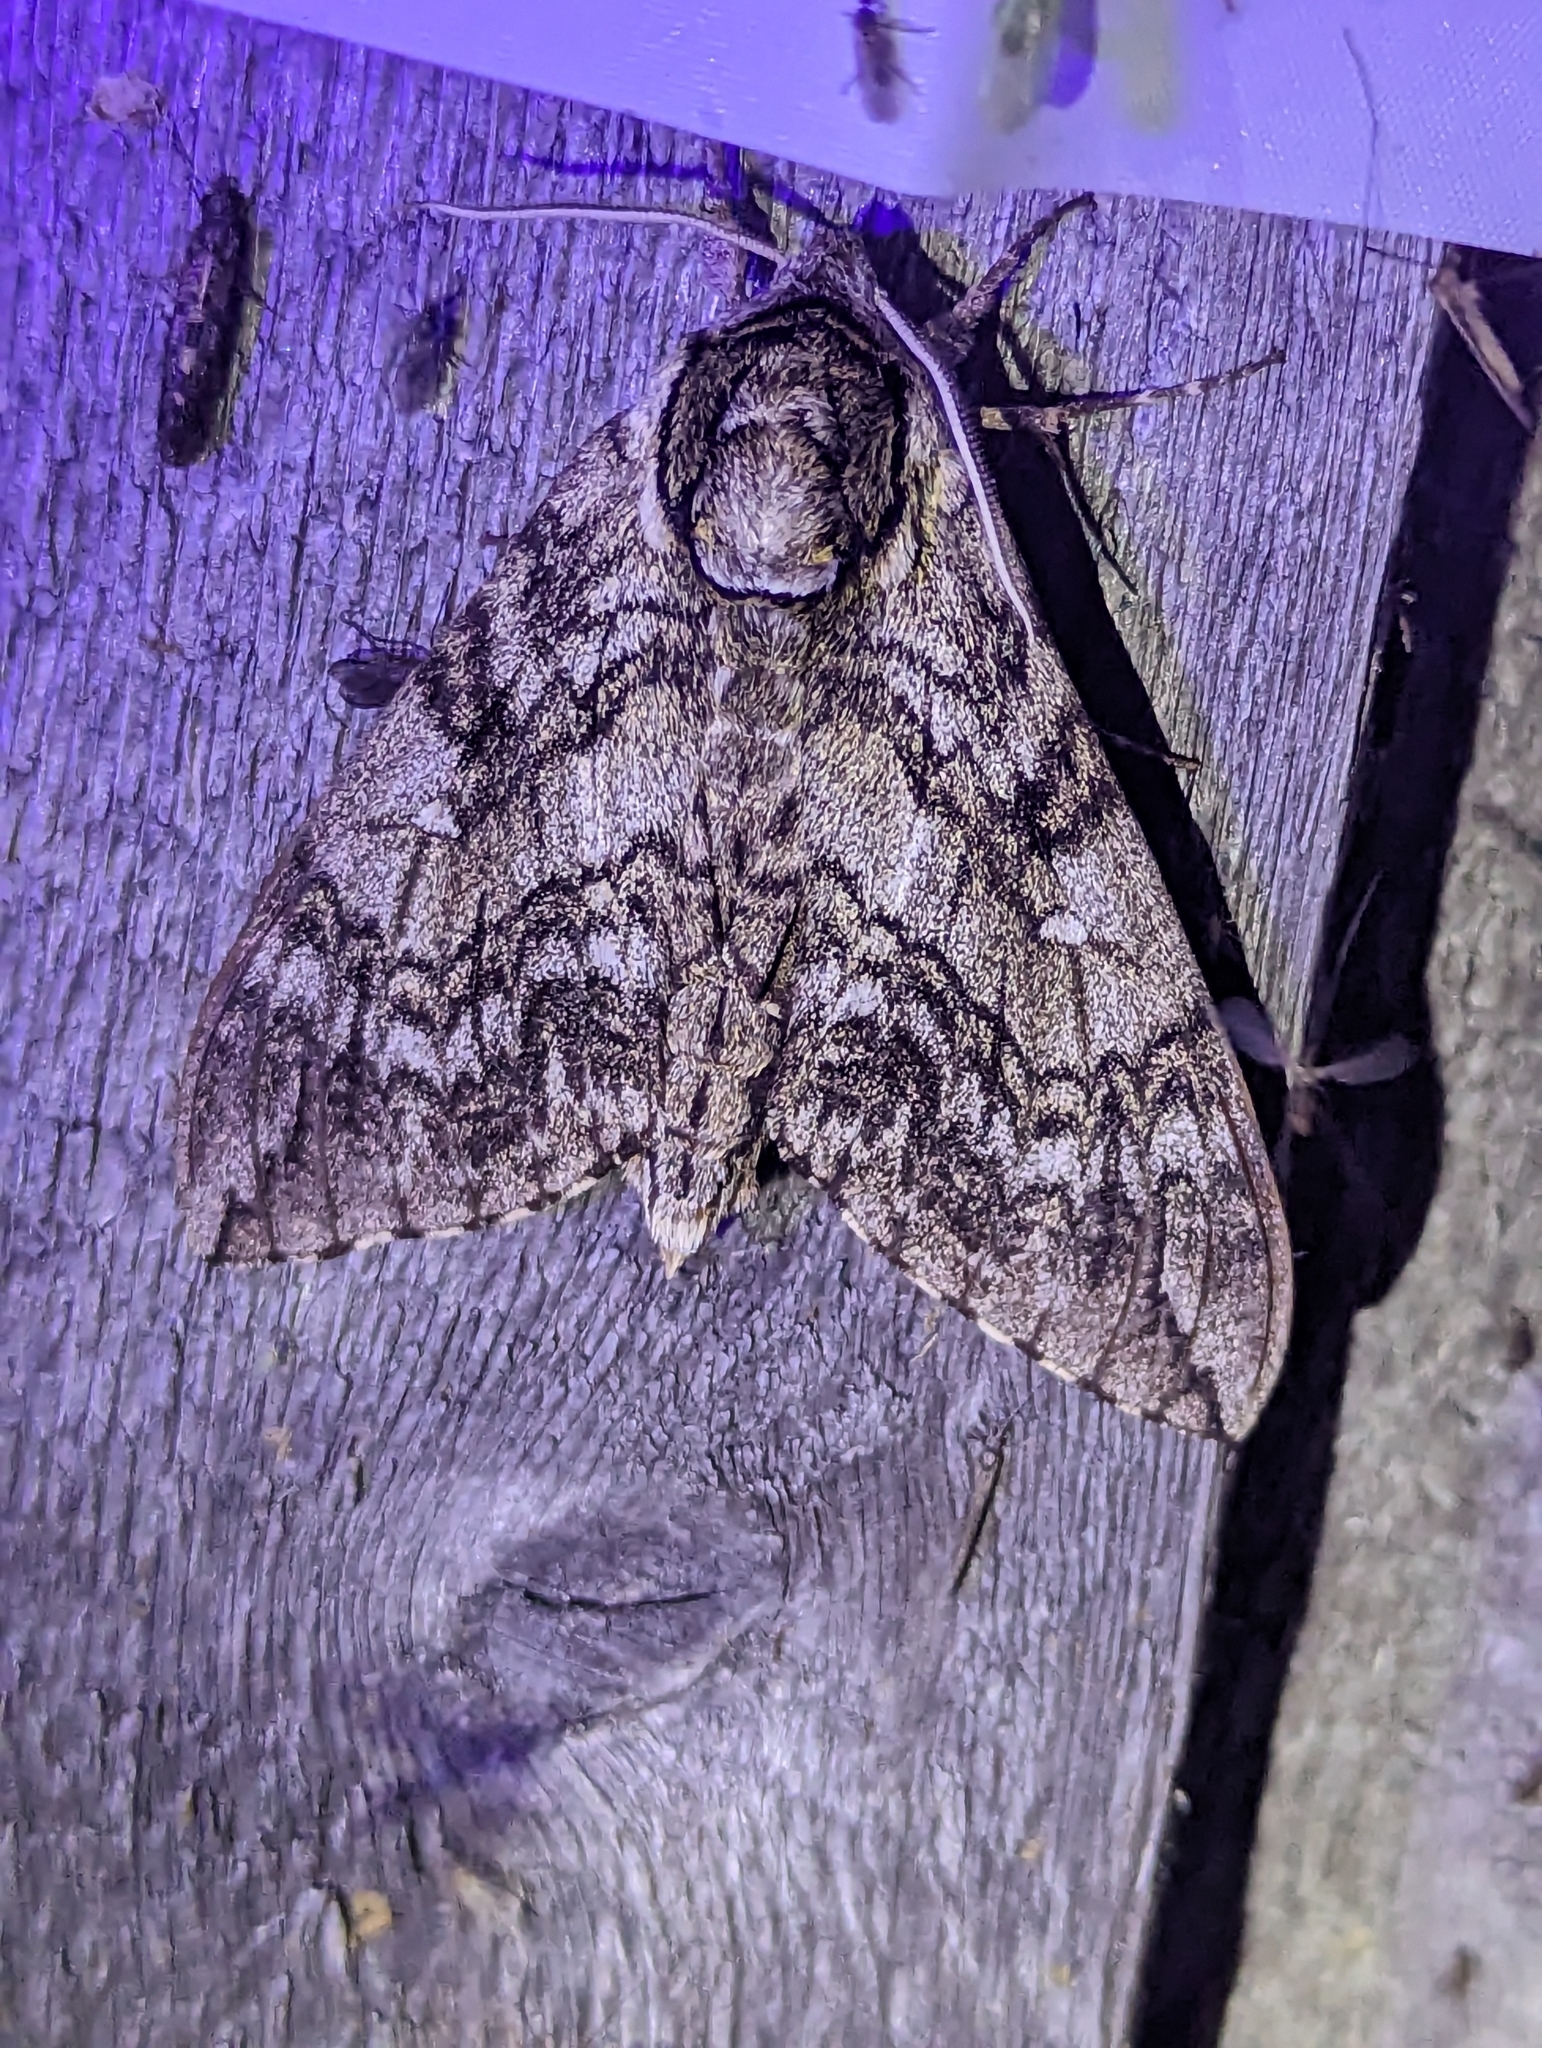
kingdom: Animalia
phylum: Arthropoda
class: Insecta
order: Lepidoptera
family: Sphingidae
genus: Ceratomia
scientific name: Ceratomia undulosa
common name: Waved sphinx
